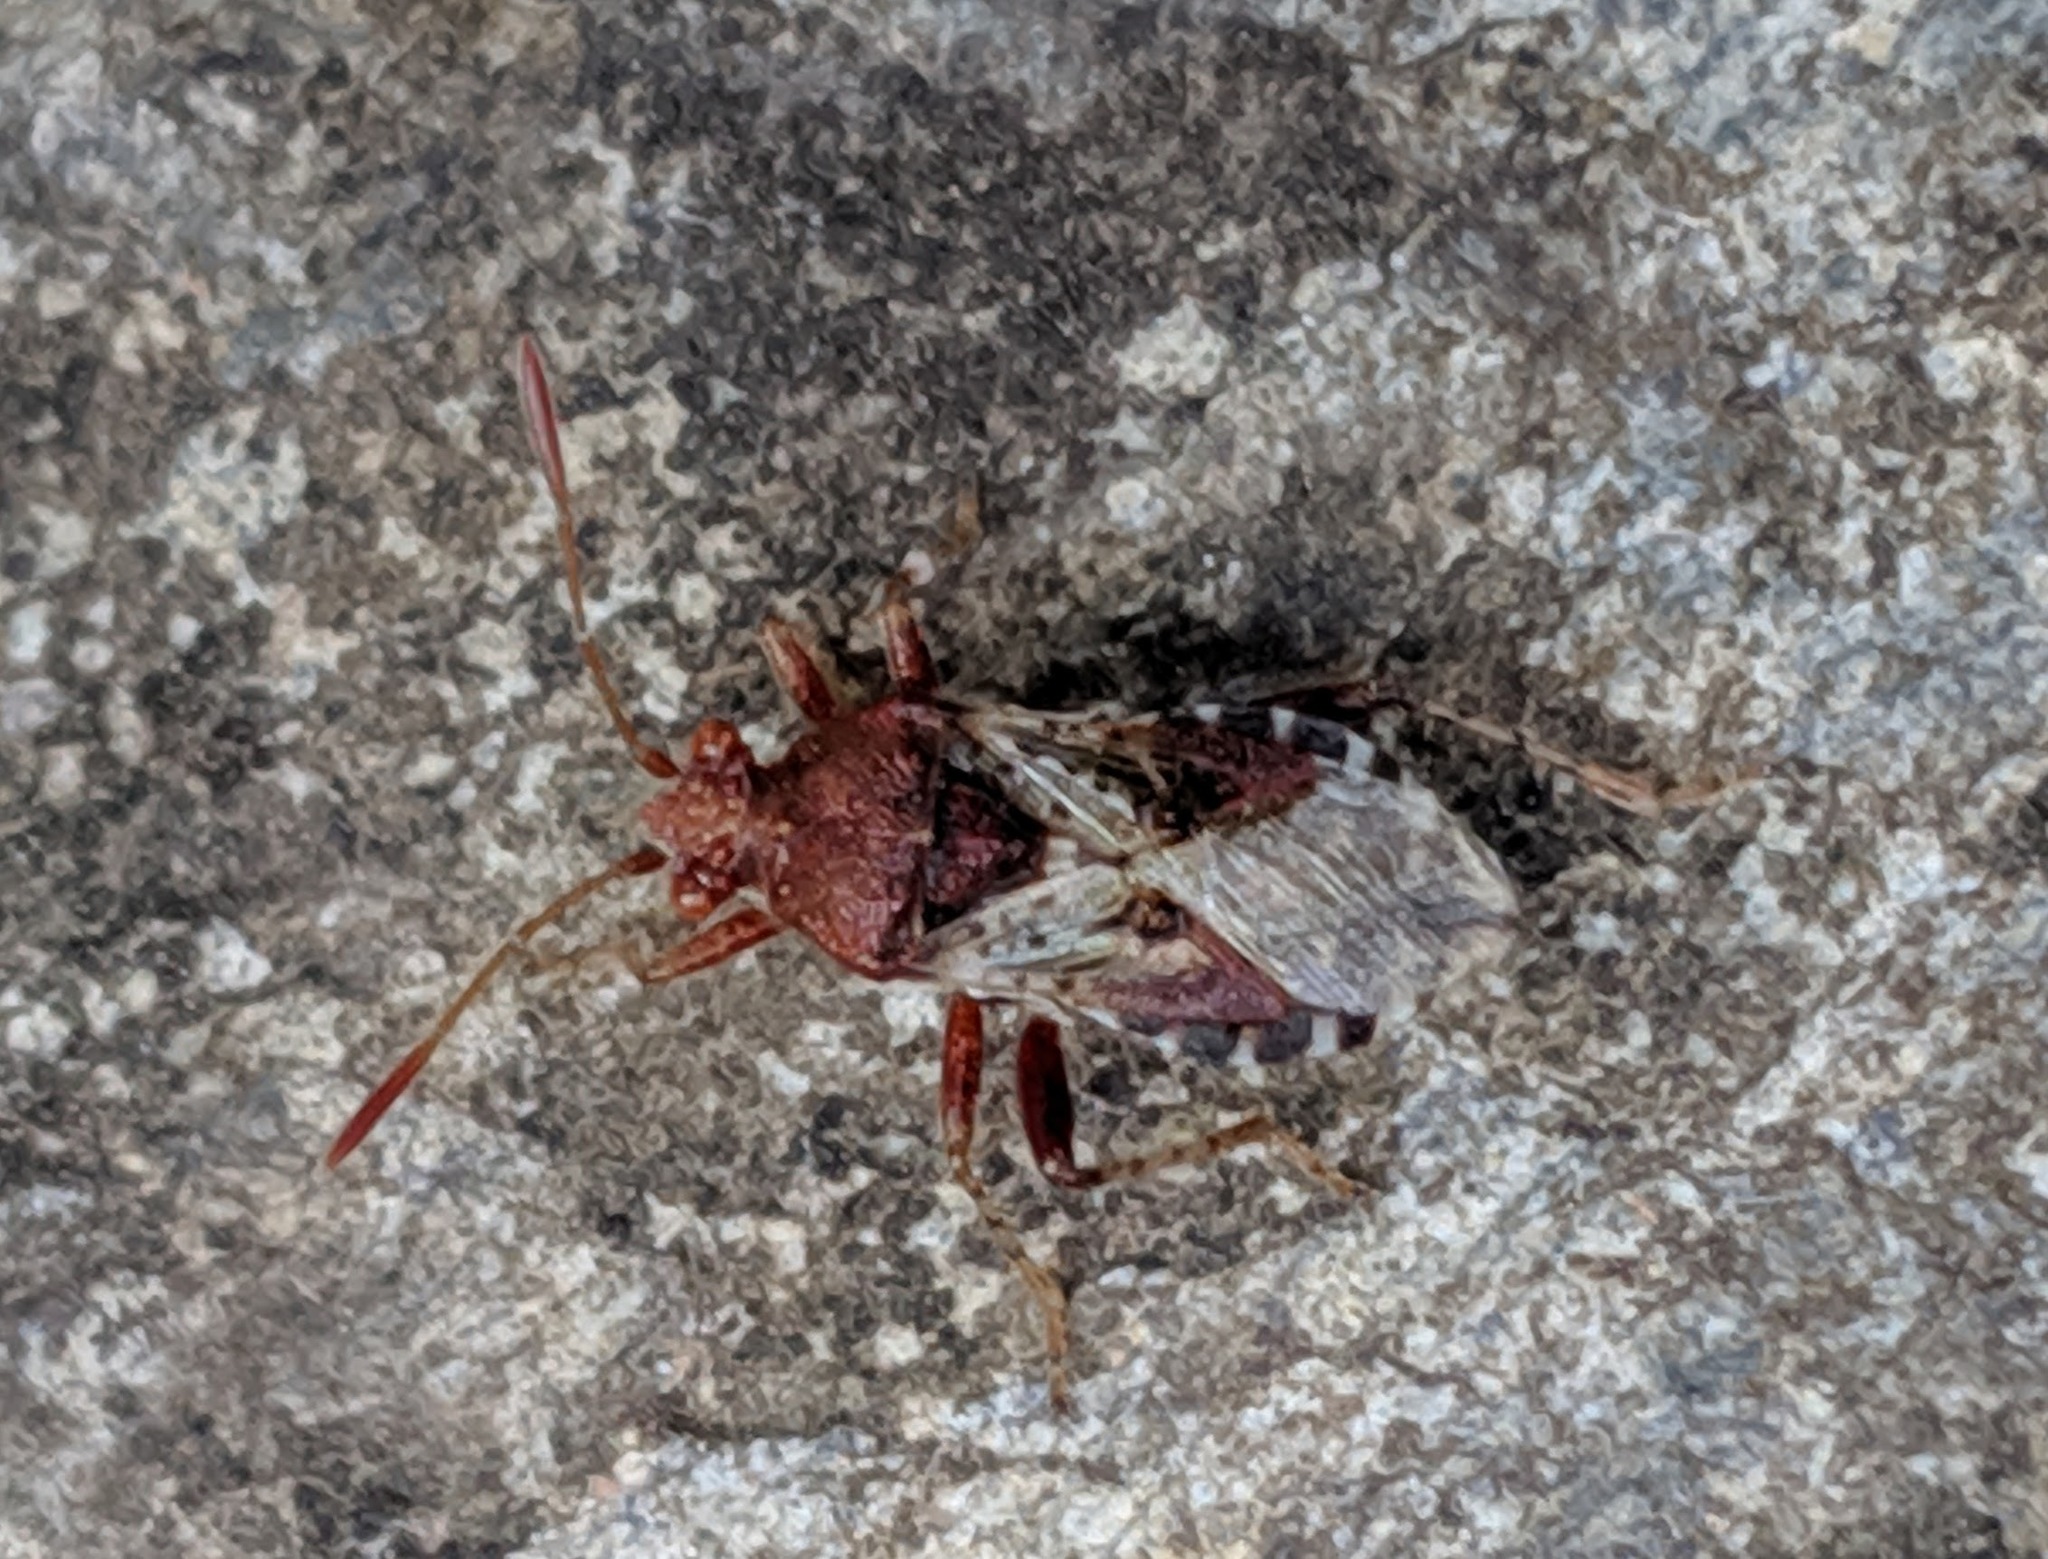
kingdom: Animalia
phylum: Arthropoda
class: Insecta
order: Hemiptera
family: Rhopalidae
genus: Rhopalus
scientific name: Rhopalus subrufus
